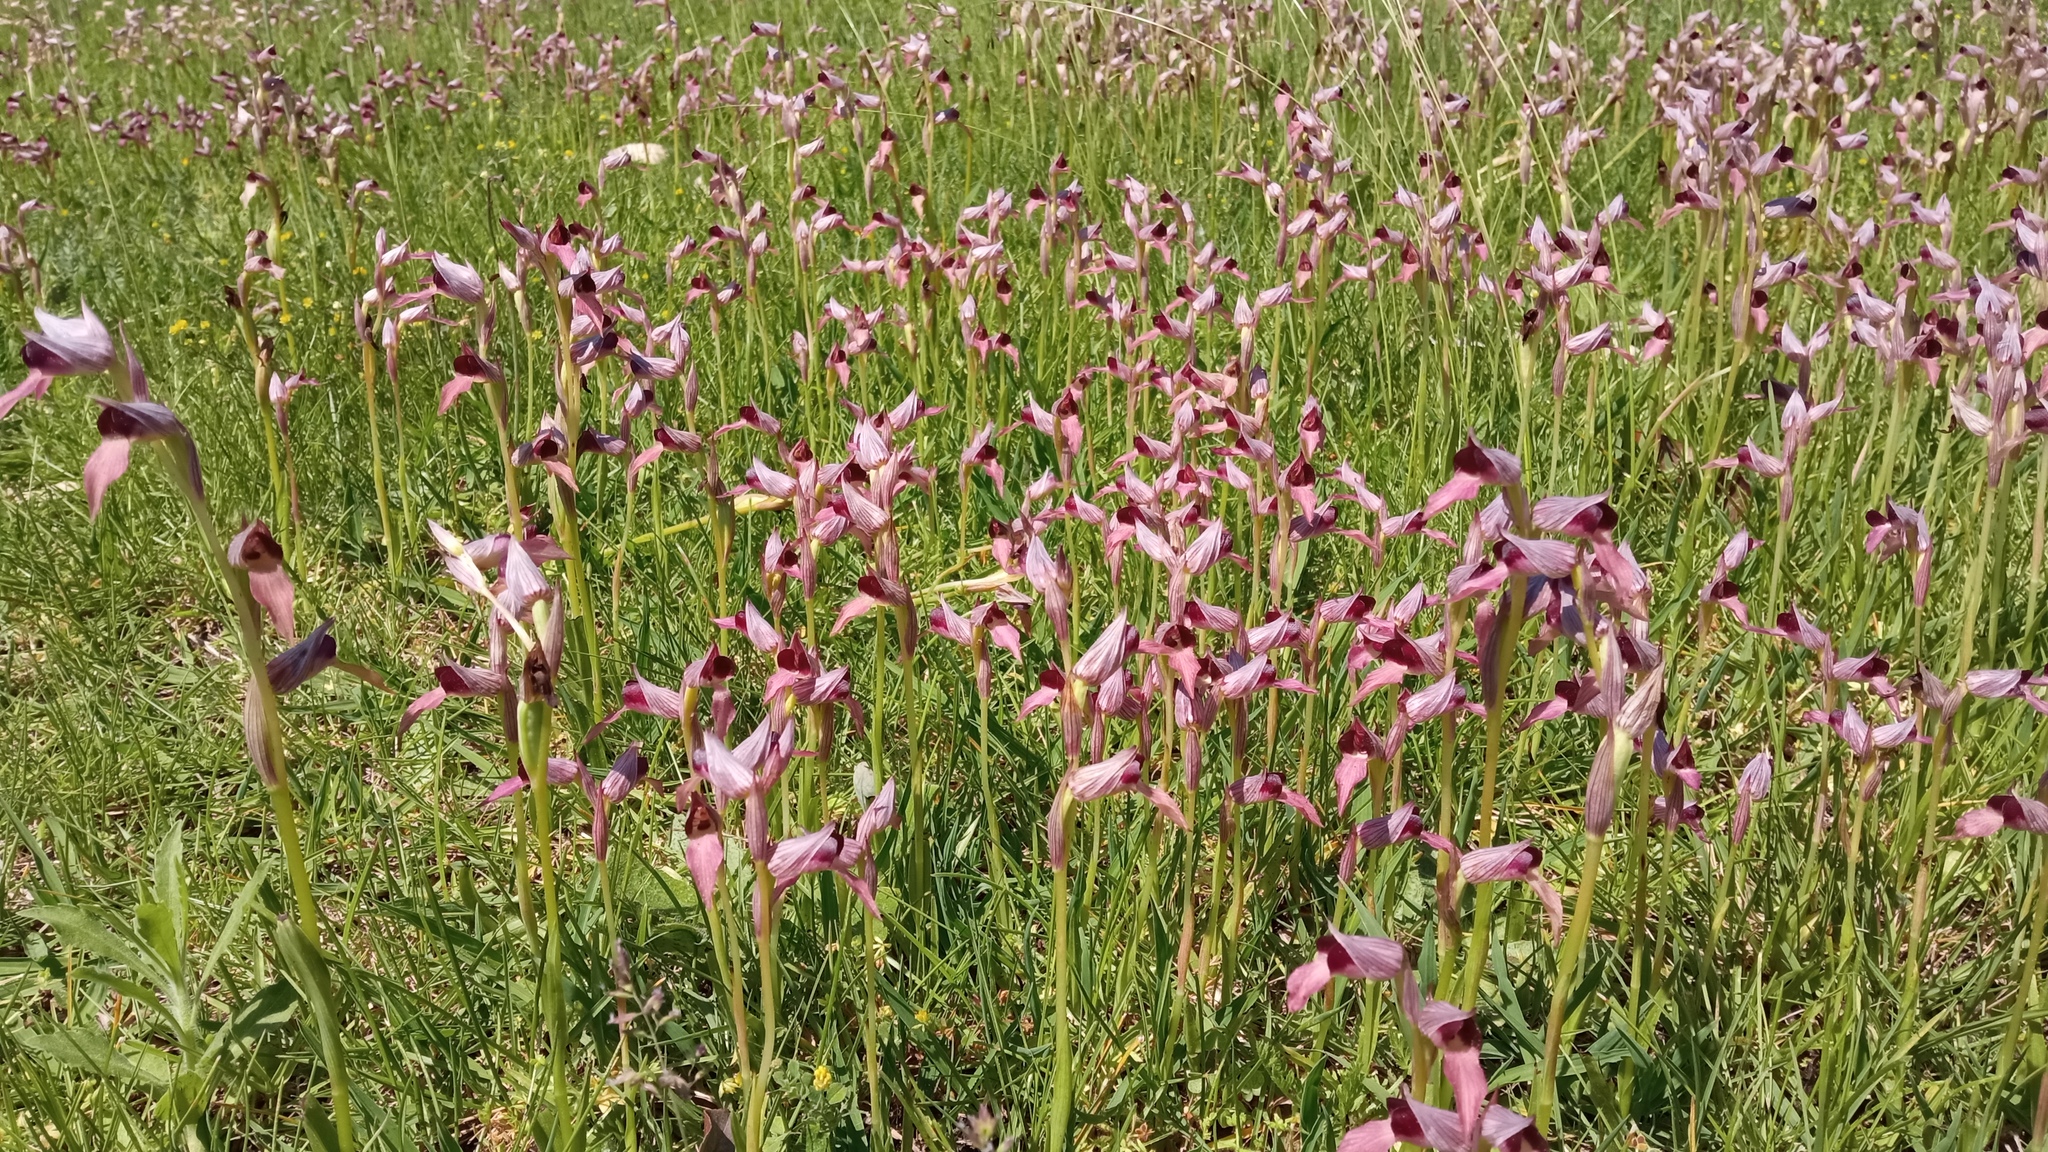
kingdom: Plantae
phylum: Tracheophyta
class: Liliopsida
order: Asparagales
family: Orchidaceae
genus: Serapias
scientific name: Serapias lingua
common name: Tongue-orchid
